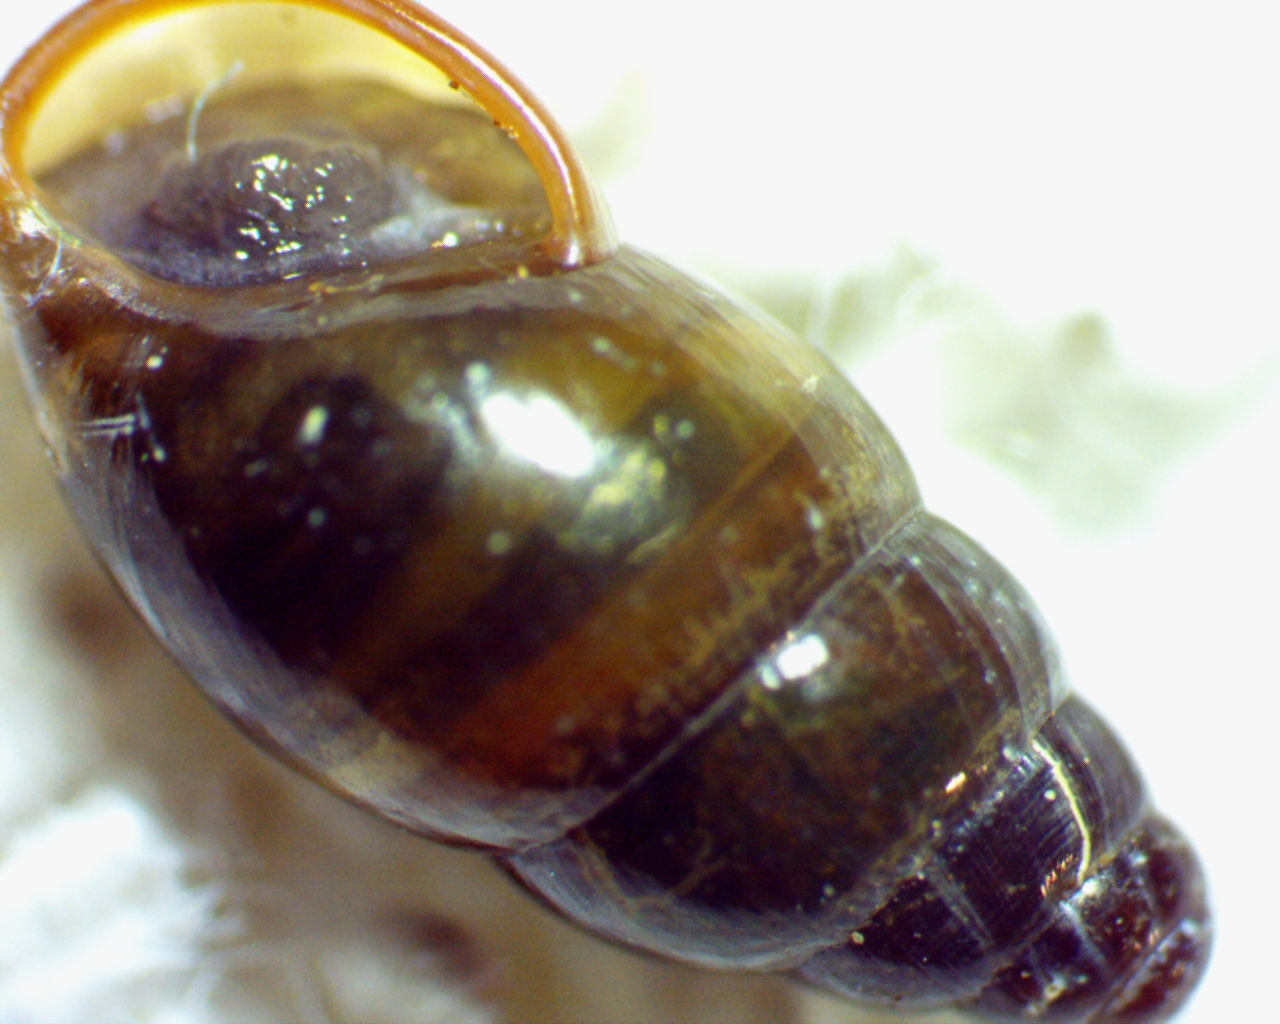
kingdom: Animalia
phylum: Mollusca
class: Gastropoda
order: Stylommatophora
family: Cochlicopidae
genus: Cochlicopa
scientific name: Cochlicopa lubrica
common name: Glossy pillar snail
